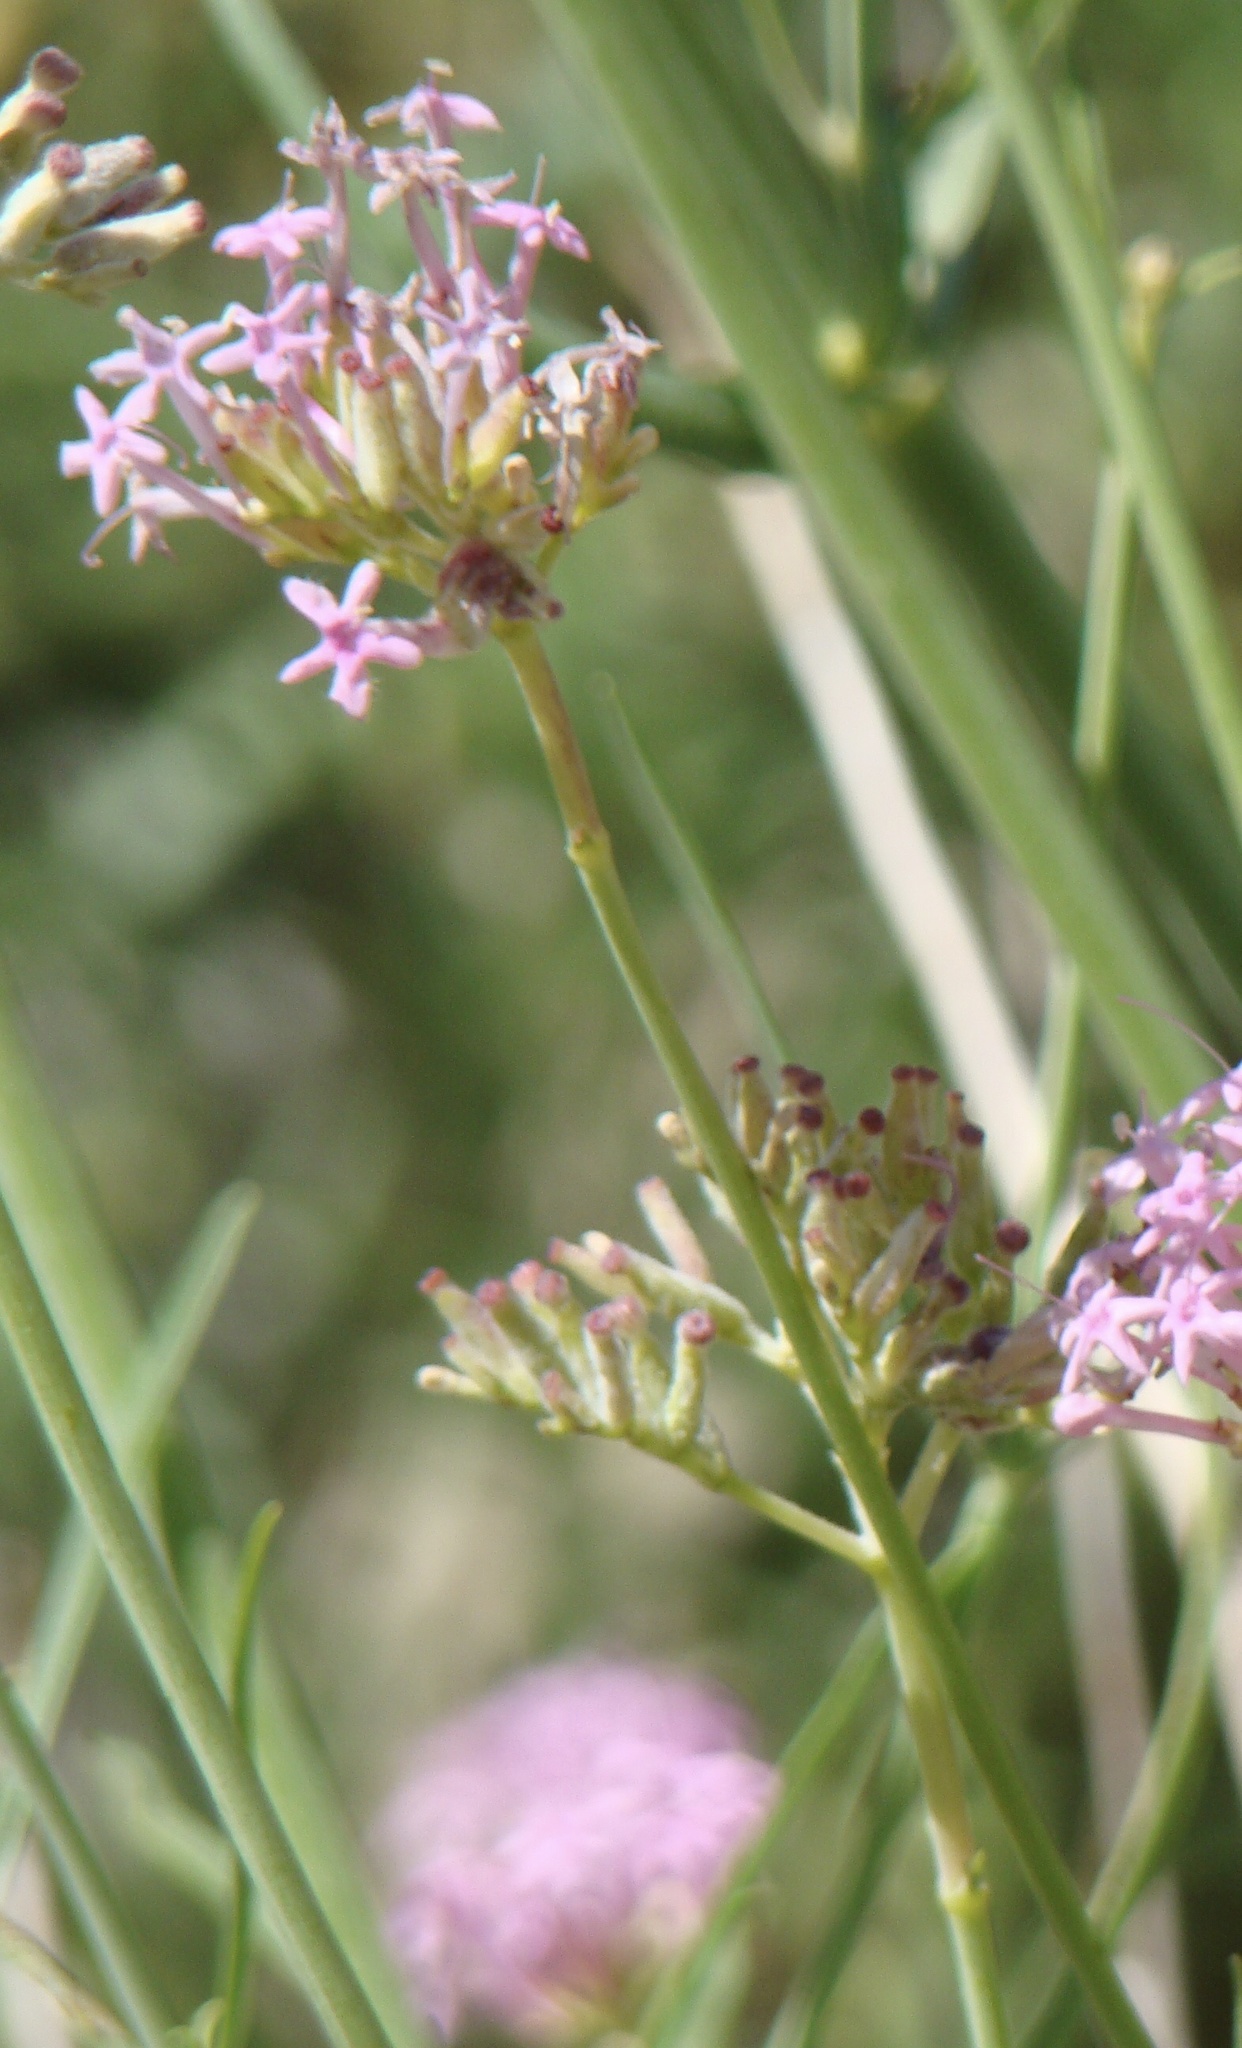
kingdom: Plantae
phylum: Tracheophyta
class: Magnoliopsida
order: Dipsacales
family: Caprifoliaceae
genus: Centranthus
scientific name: Centranthus angustifolius
